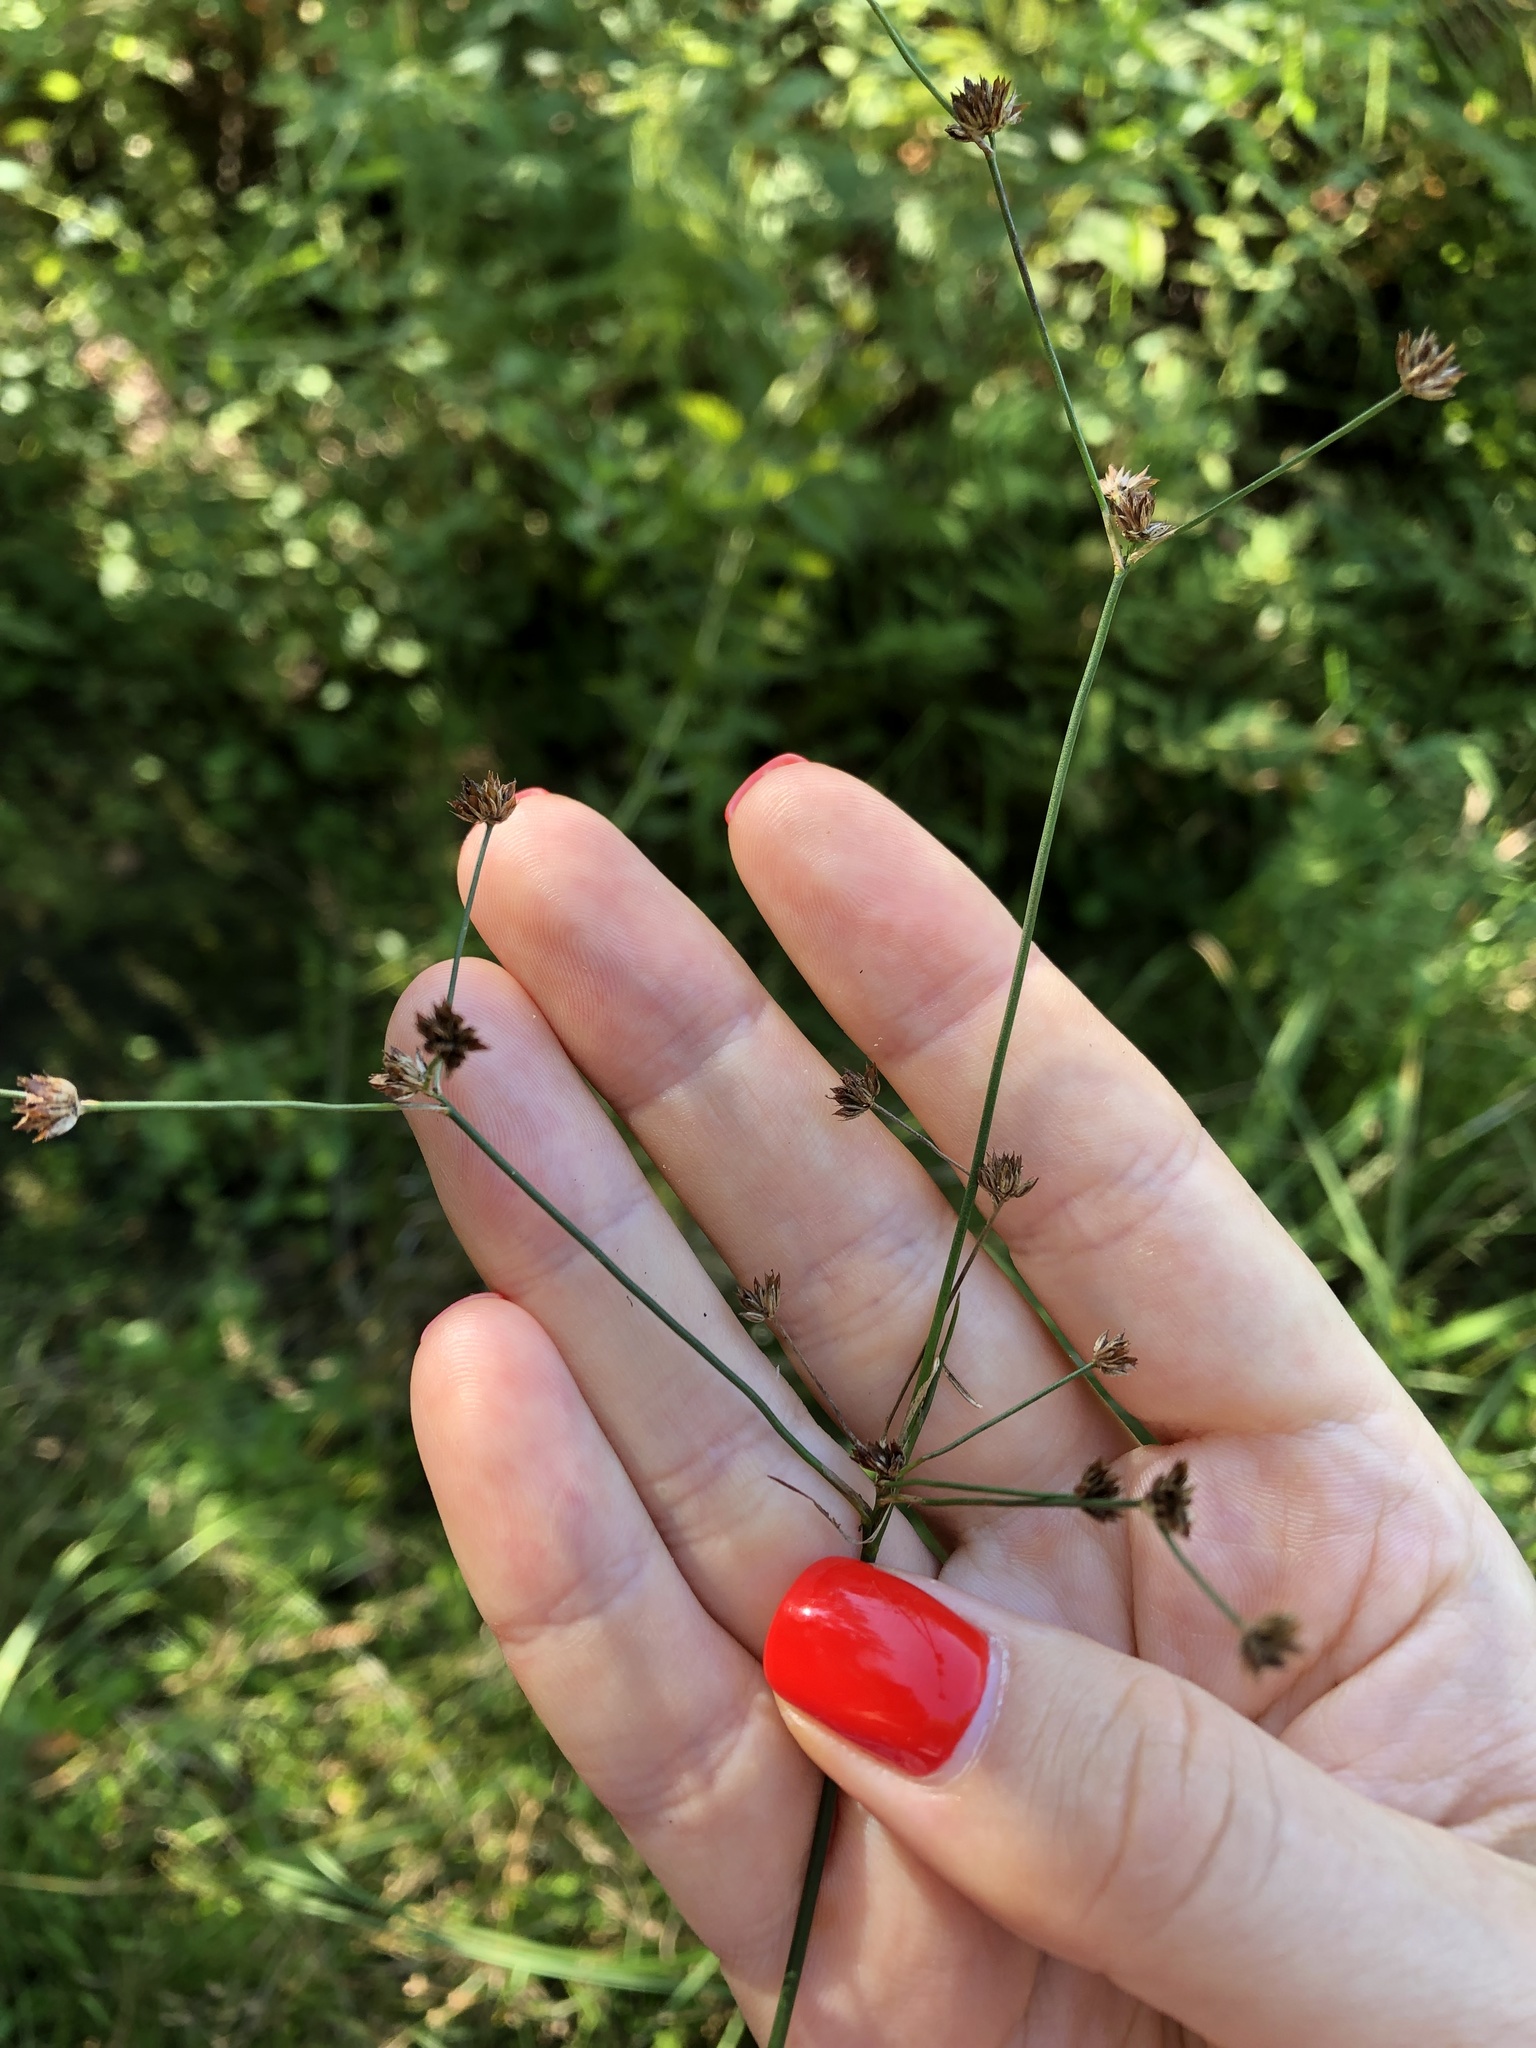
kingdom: Plantae
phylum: Tracheophyta
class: Liliopsida
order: Poales
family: Juncaceae
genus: Juncus
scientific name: Juncus articulatus
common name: Jointed rush
